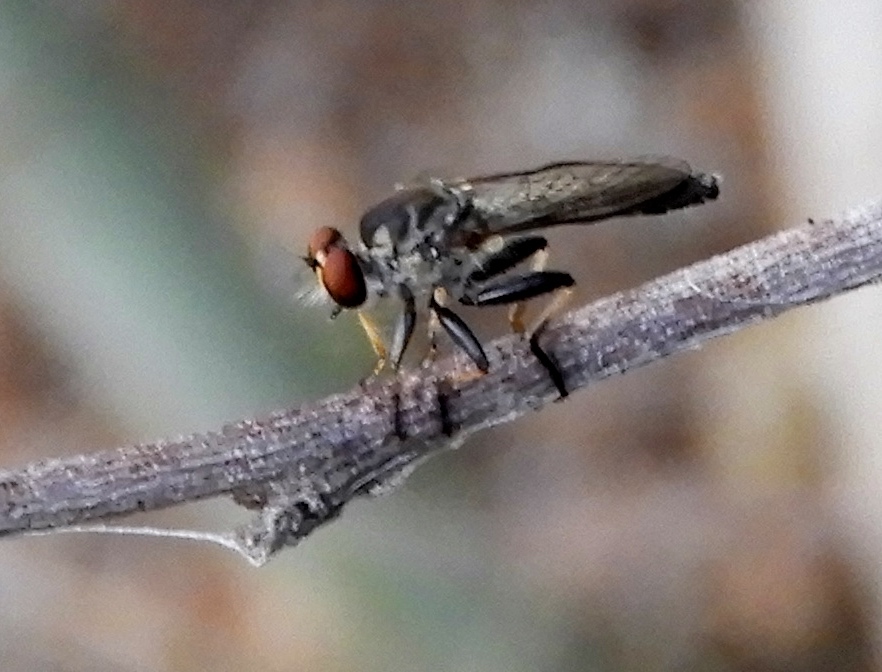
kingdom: Animalia
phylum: Arthropoda
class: Insecta
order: Diptera
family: Asilidae
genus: Ommatius
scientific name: Ommatius
